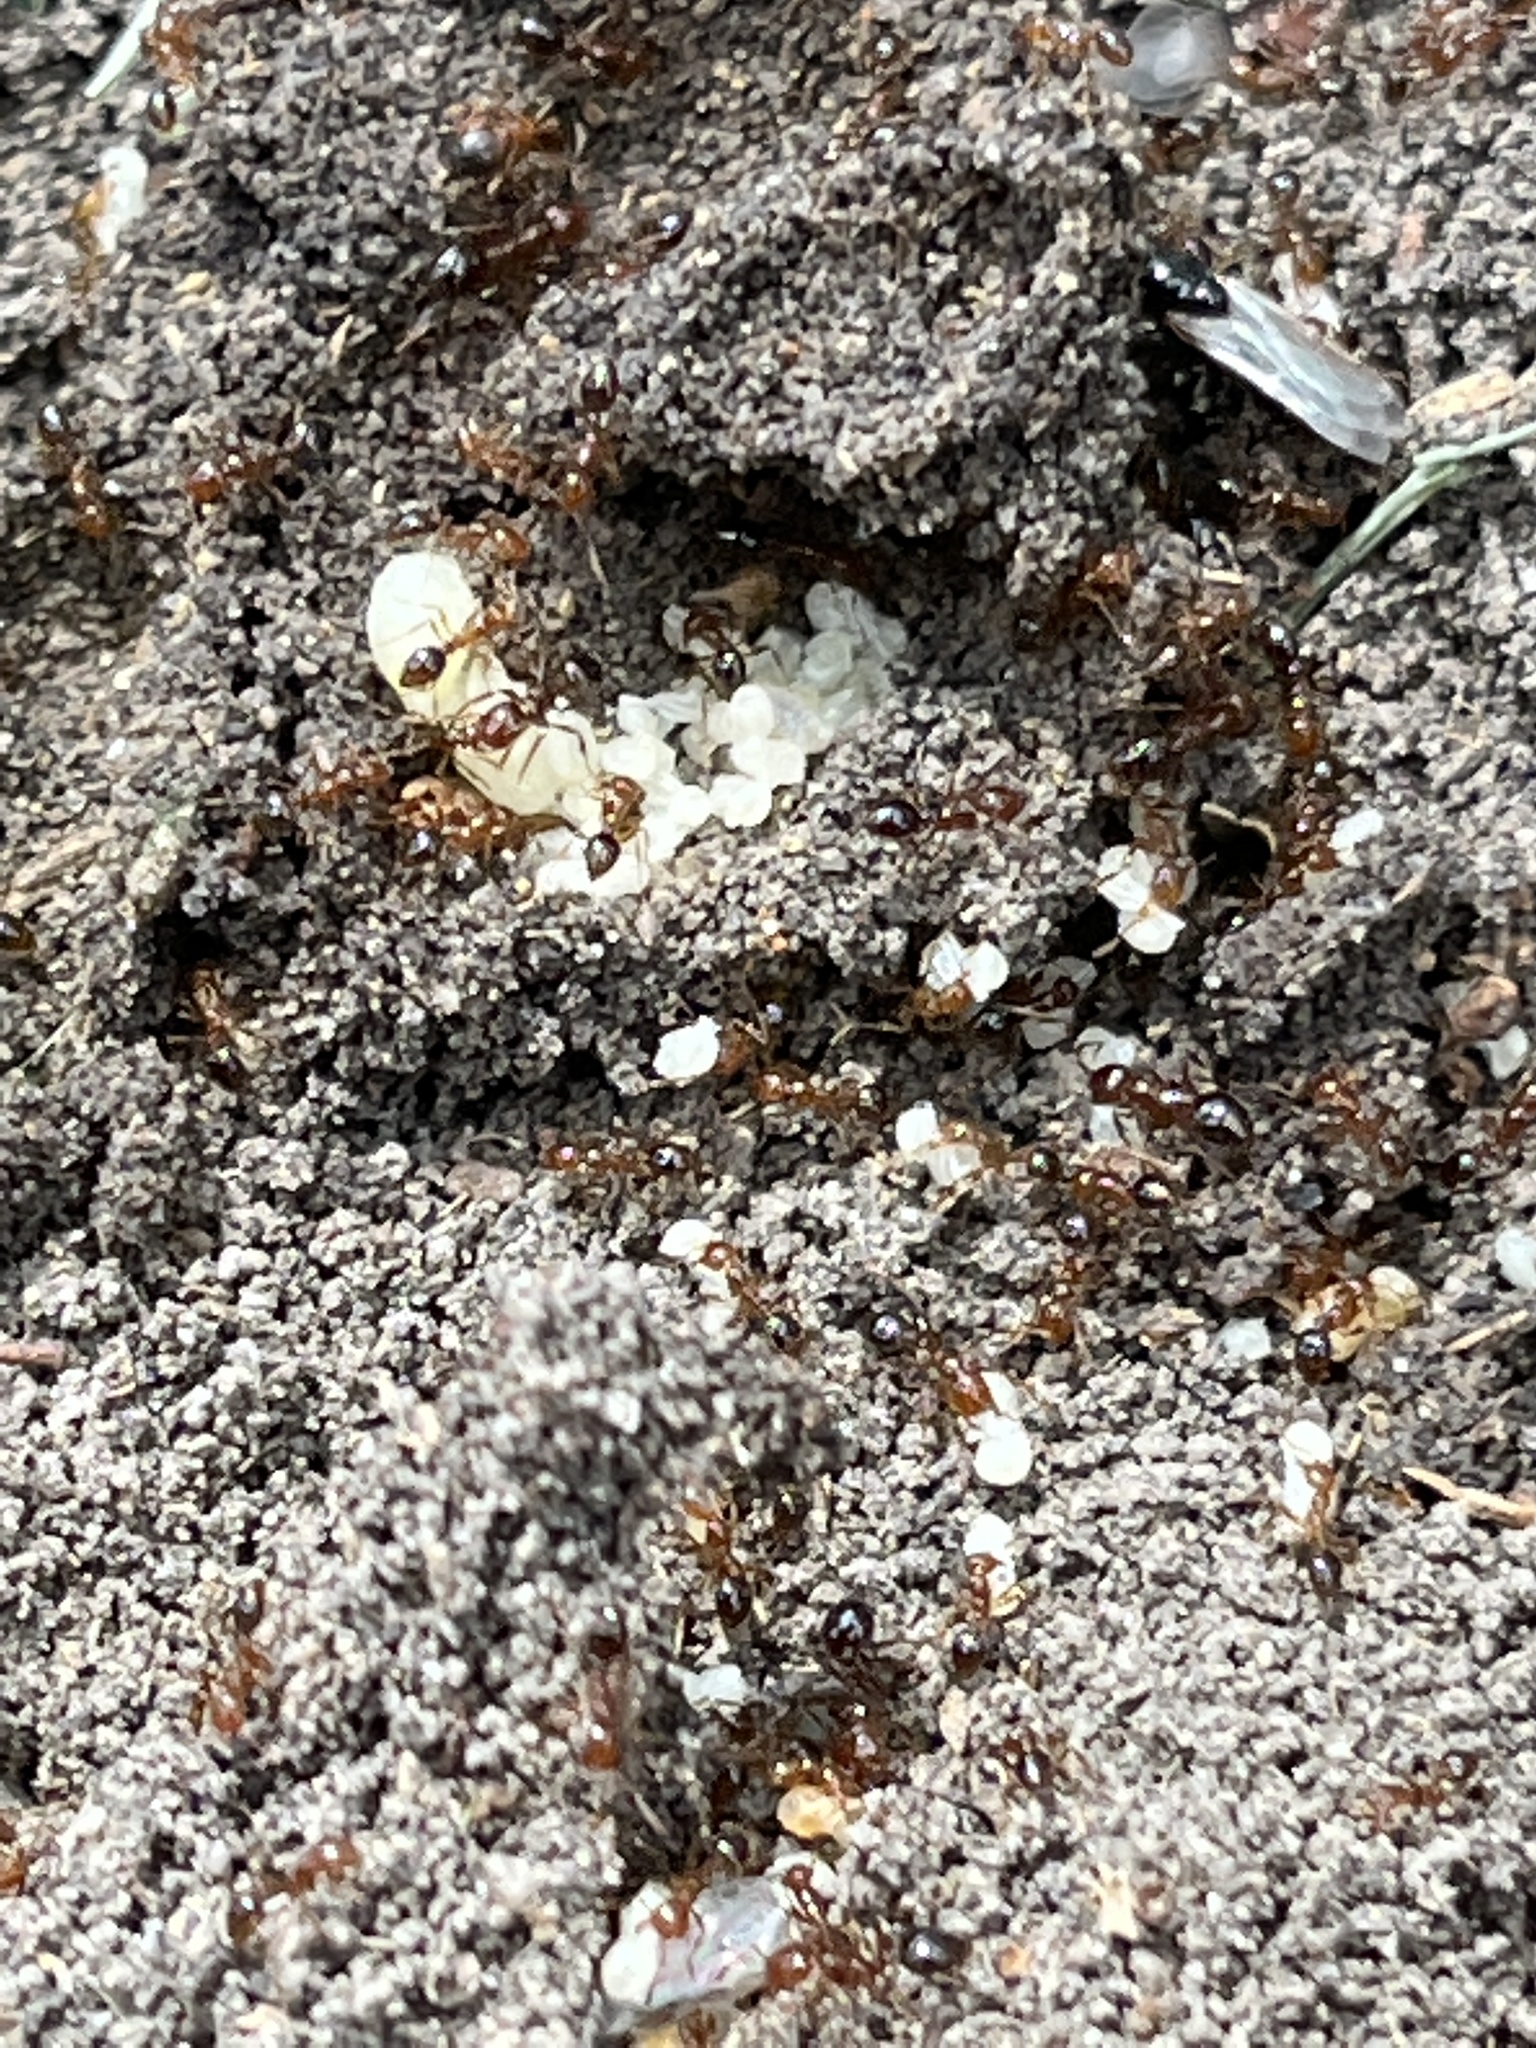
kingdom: Animalia
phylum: Arthropoda
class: Insecta
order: Hymenoptera
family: Formicidae
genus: Solenopsis
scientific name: Solenopsis invicta
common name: Red imported fire ant
